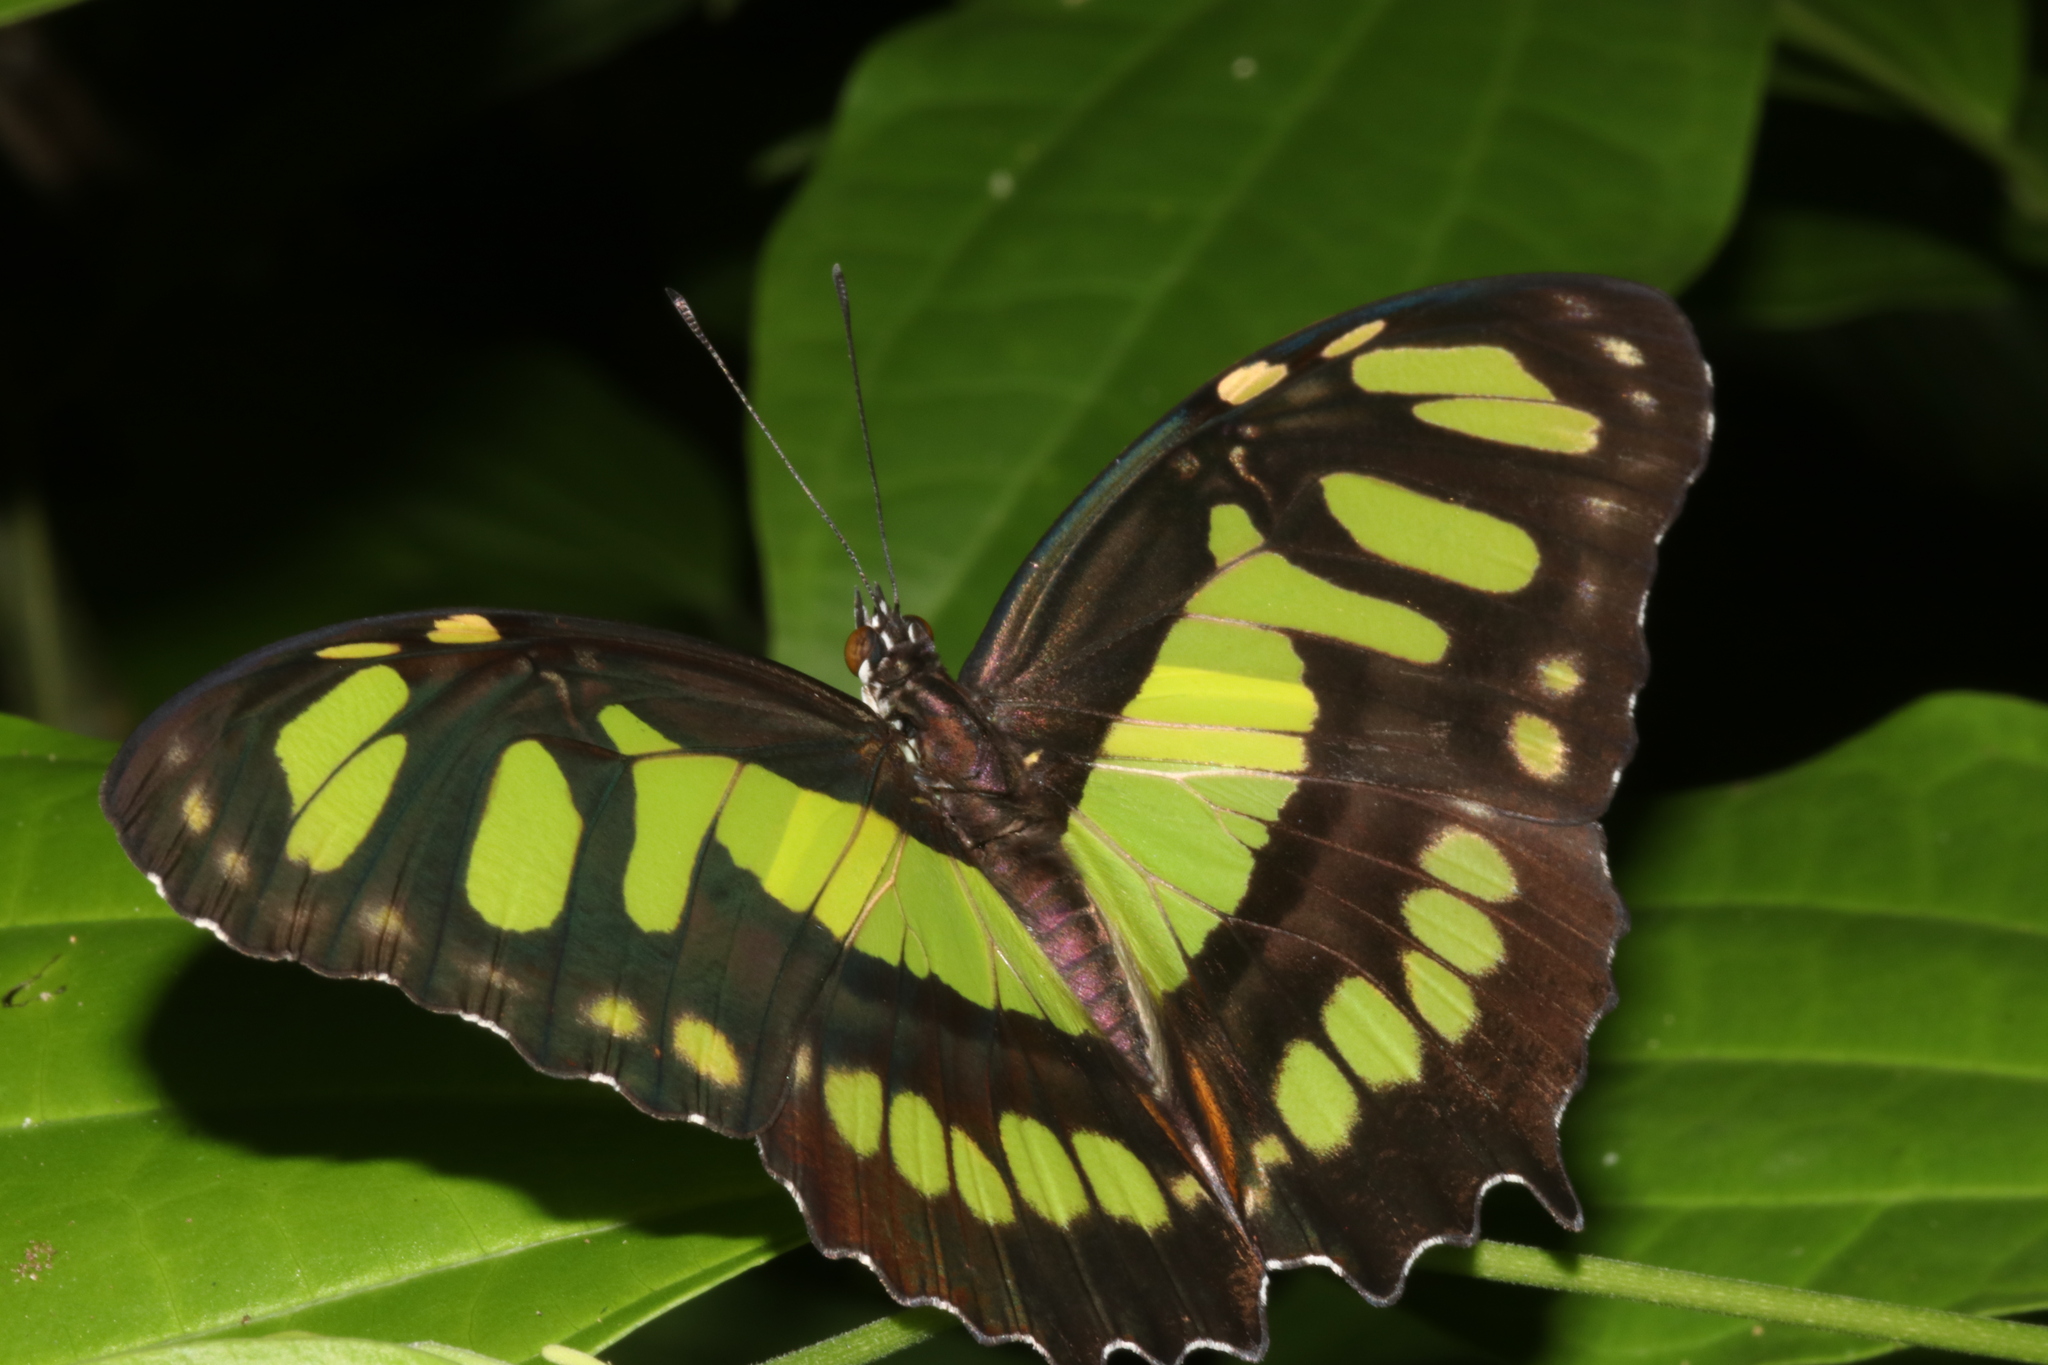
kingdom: Animalia
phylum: Arthropoda
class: Insecta
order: Lepidoptera
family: Nymphalidae
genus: Siproeta
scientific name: Siproeta stelenes
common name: Malachite
